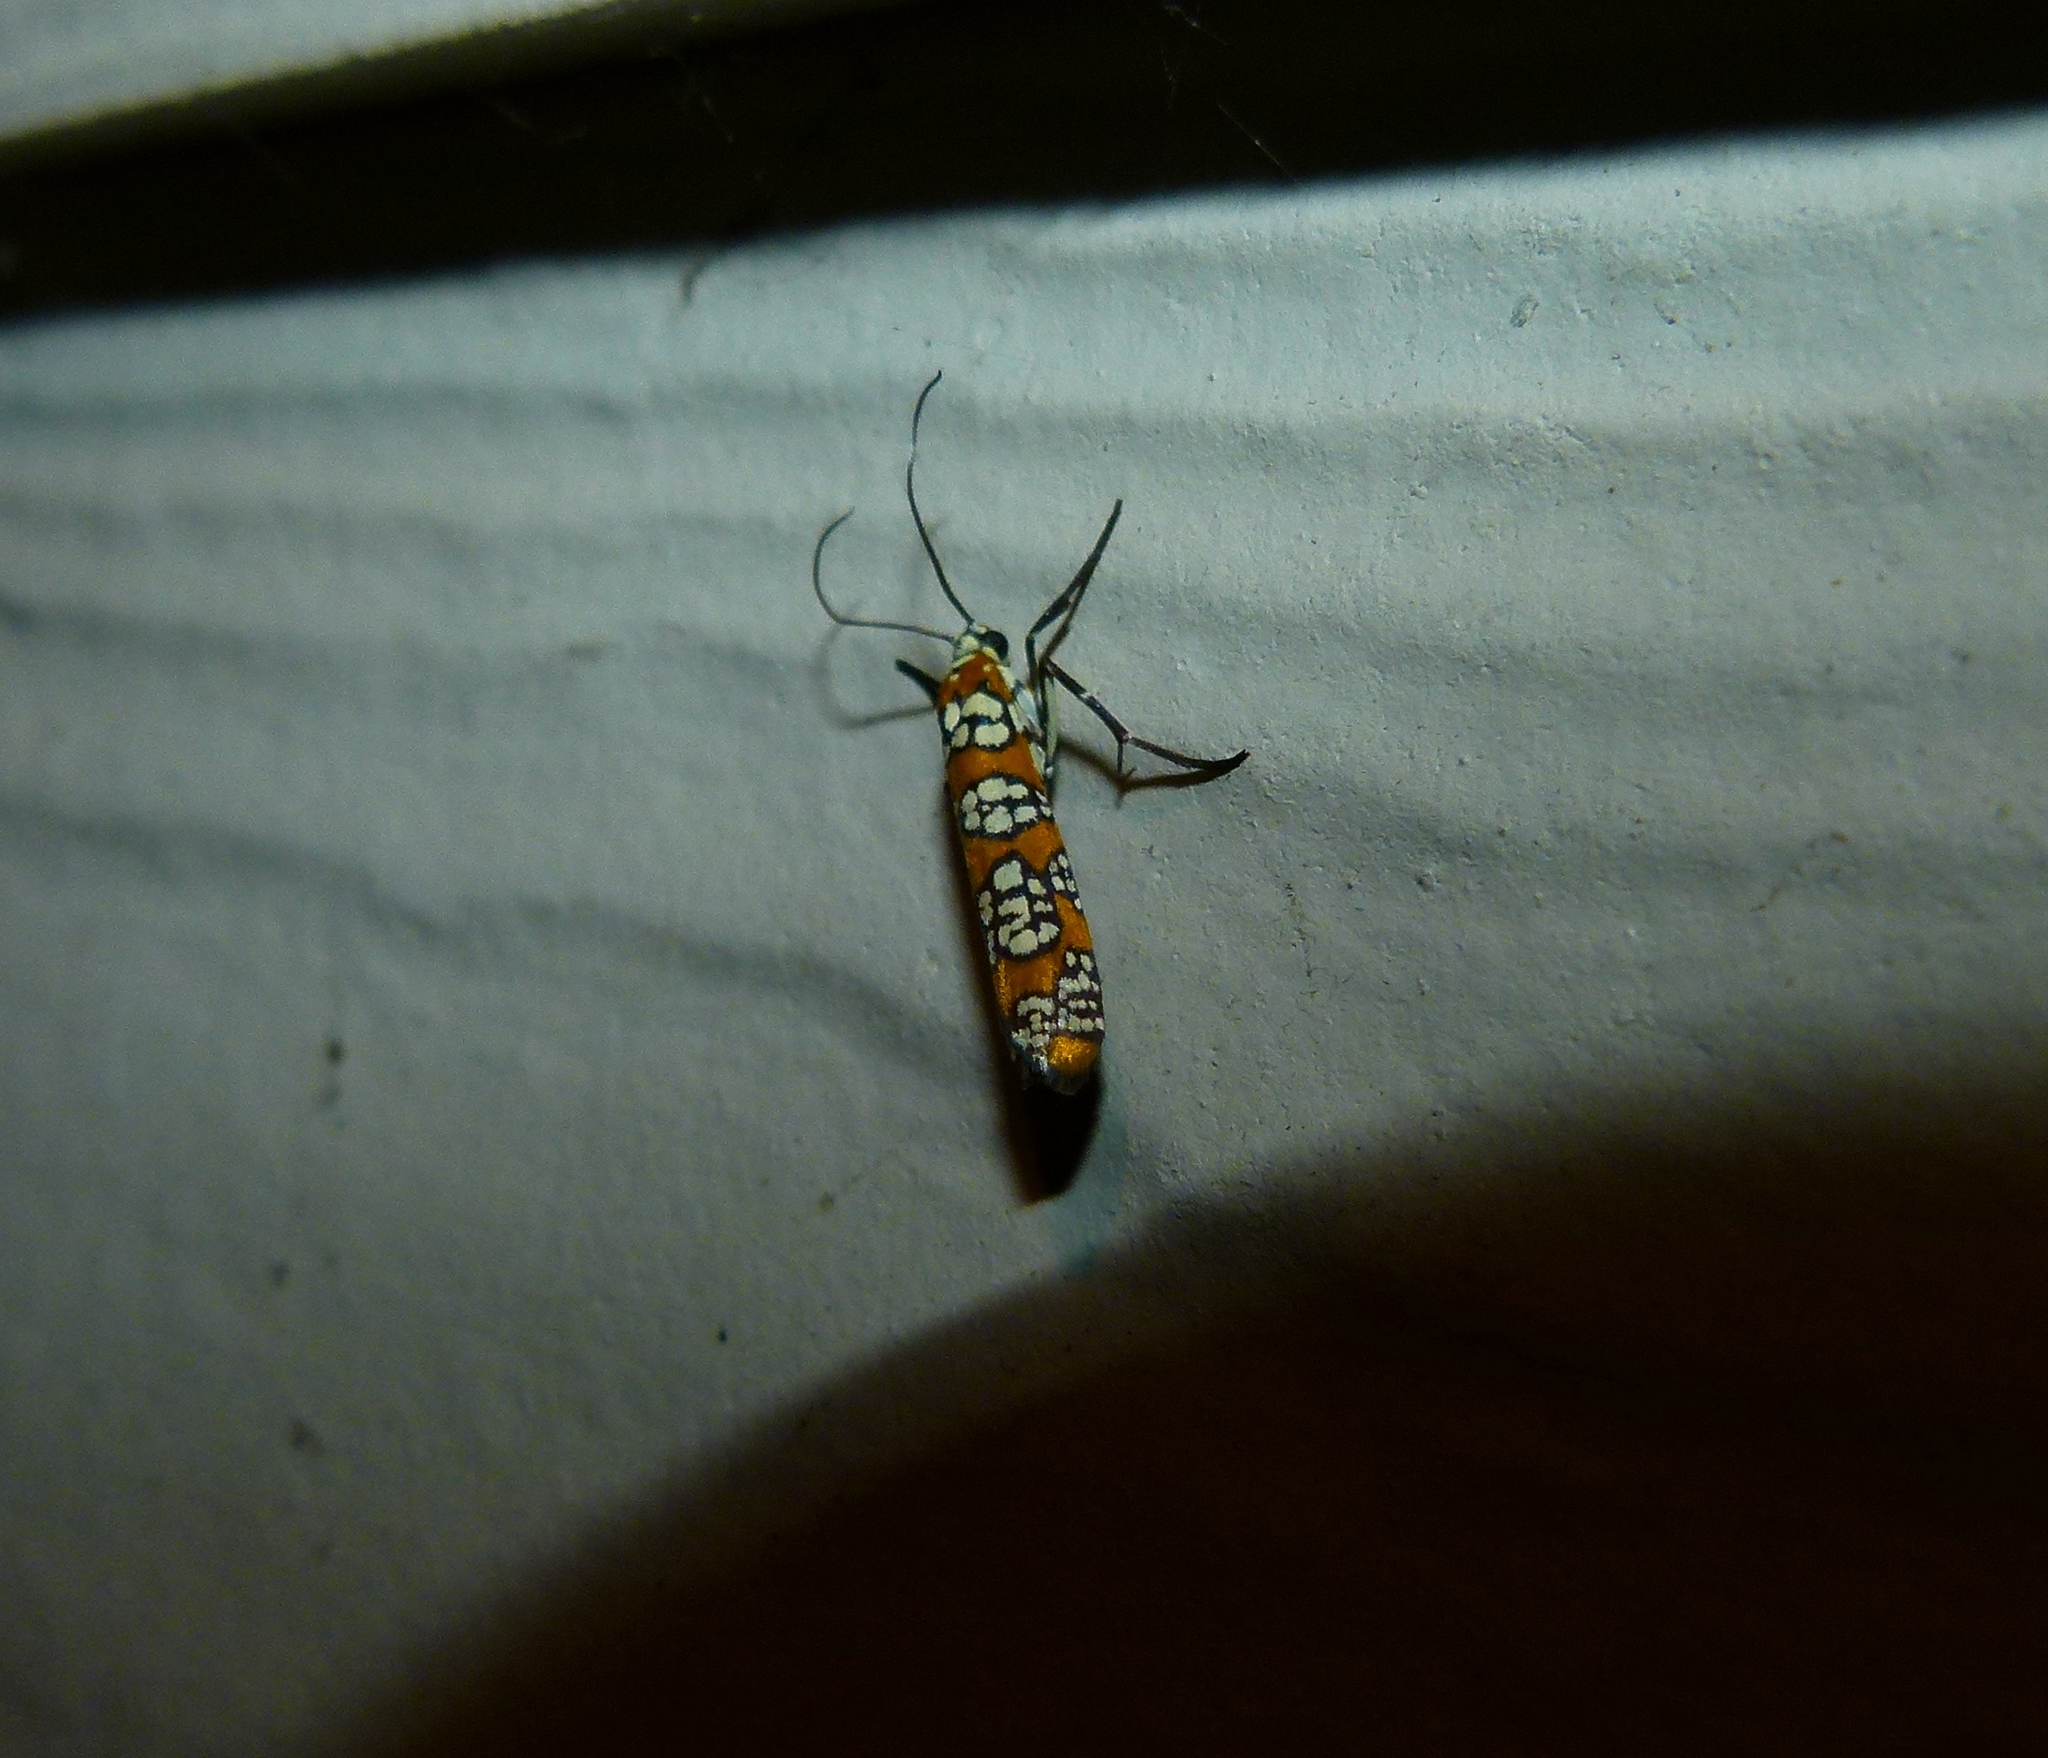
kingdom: Animalia
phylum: Arthropoda
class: Insecta
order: Lepidoptera
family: Attevidae
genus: Atteva
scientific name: Atteva punctella
